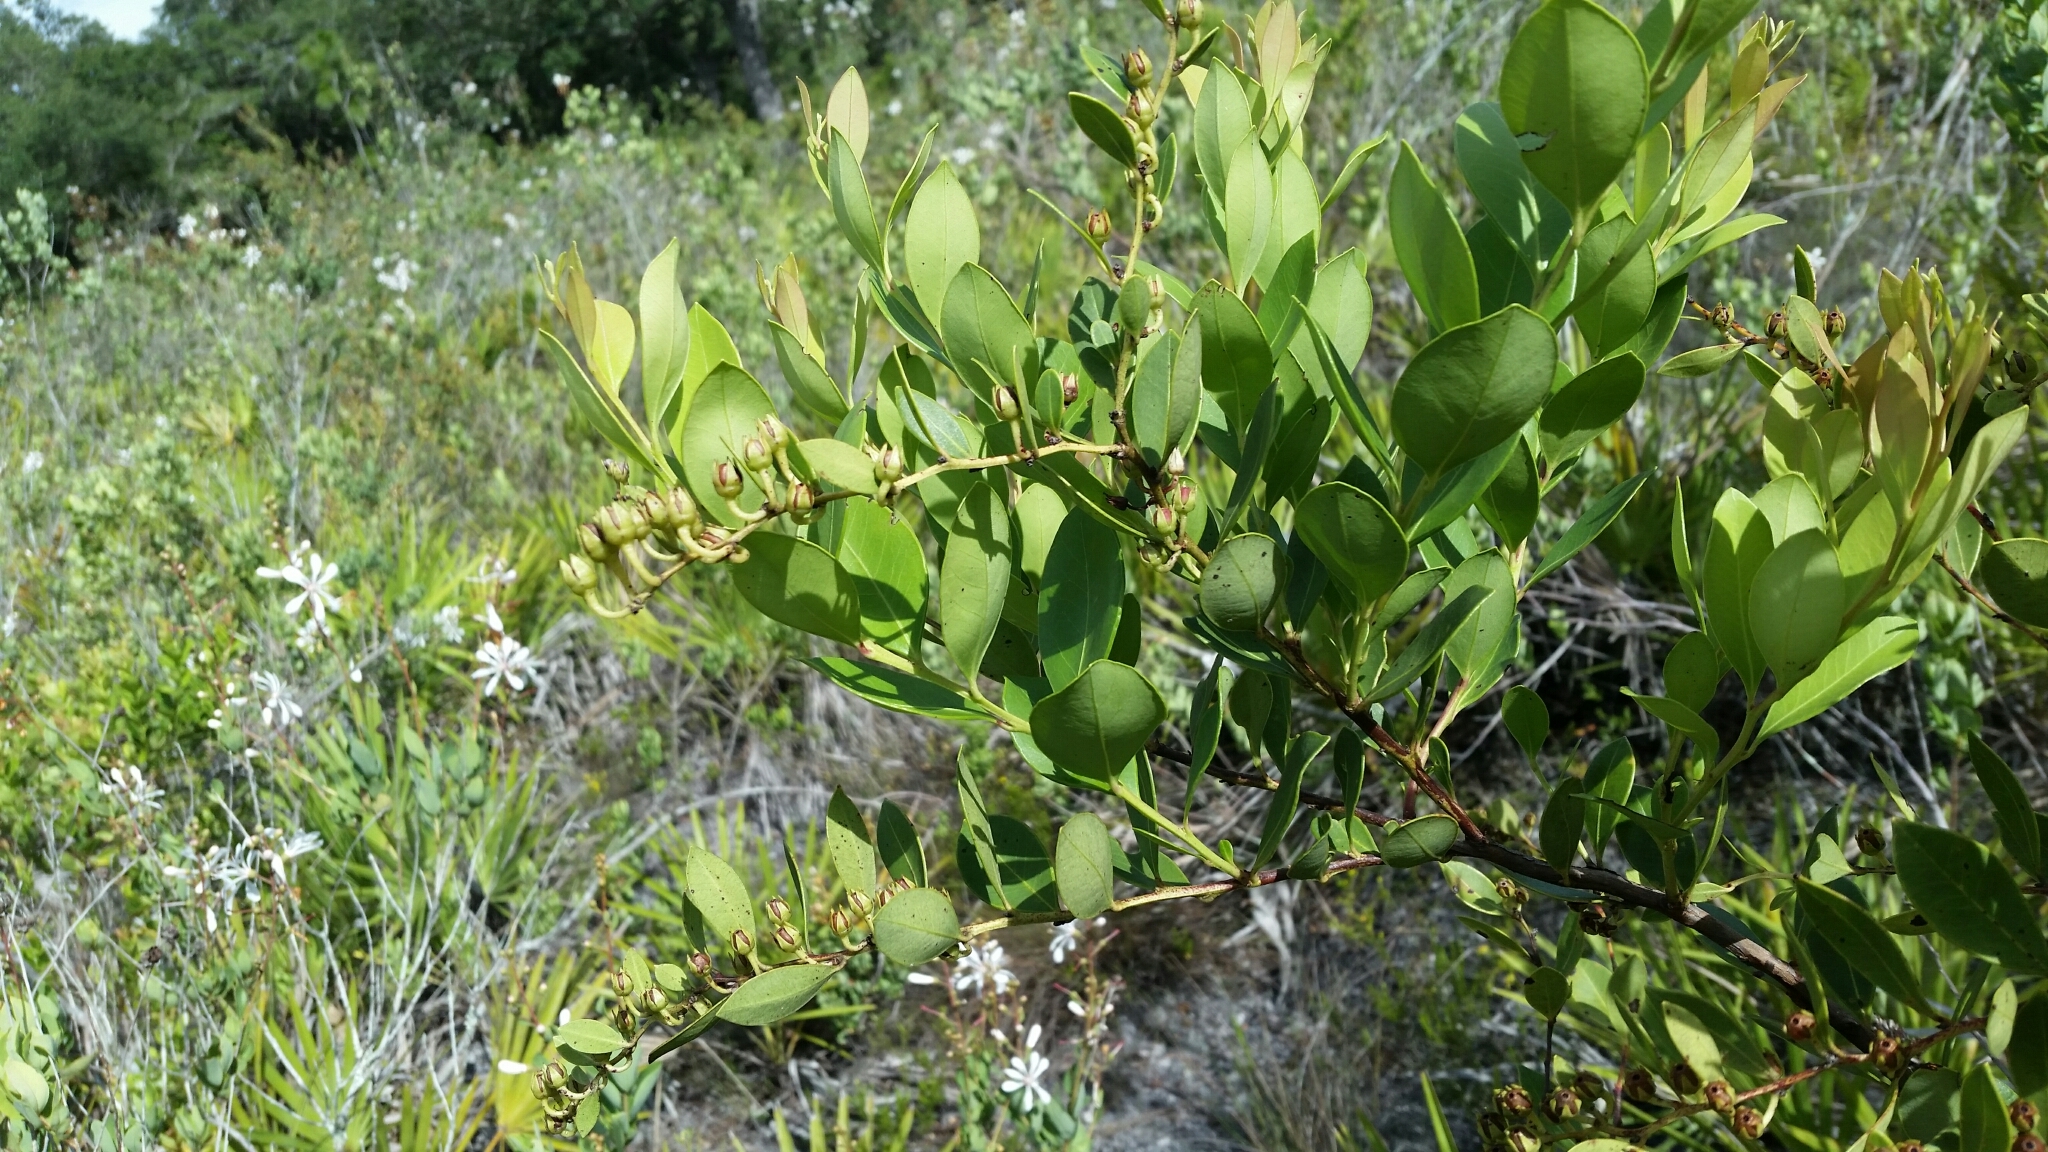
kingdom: Plantae
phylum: Tracheophyta
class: Magnoliopsida
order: Ericales
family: Ericaceae
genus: Lyonia
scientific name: Lyonia lucida
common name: Fetterbush
